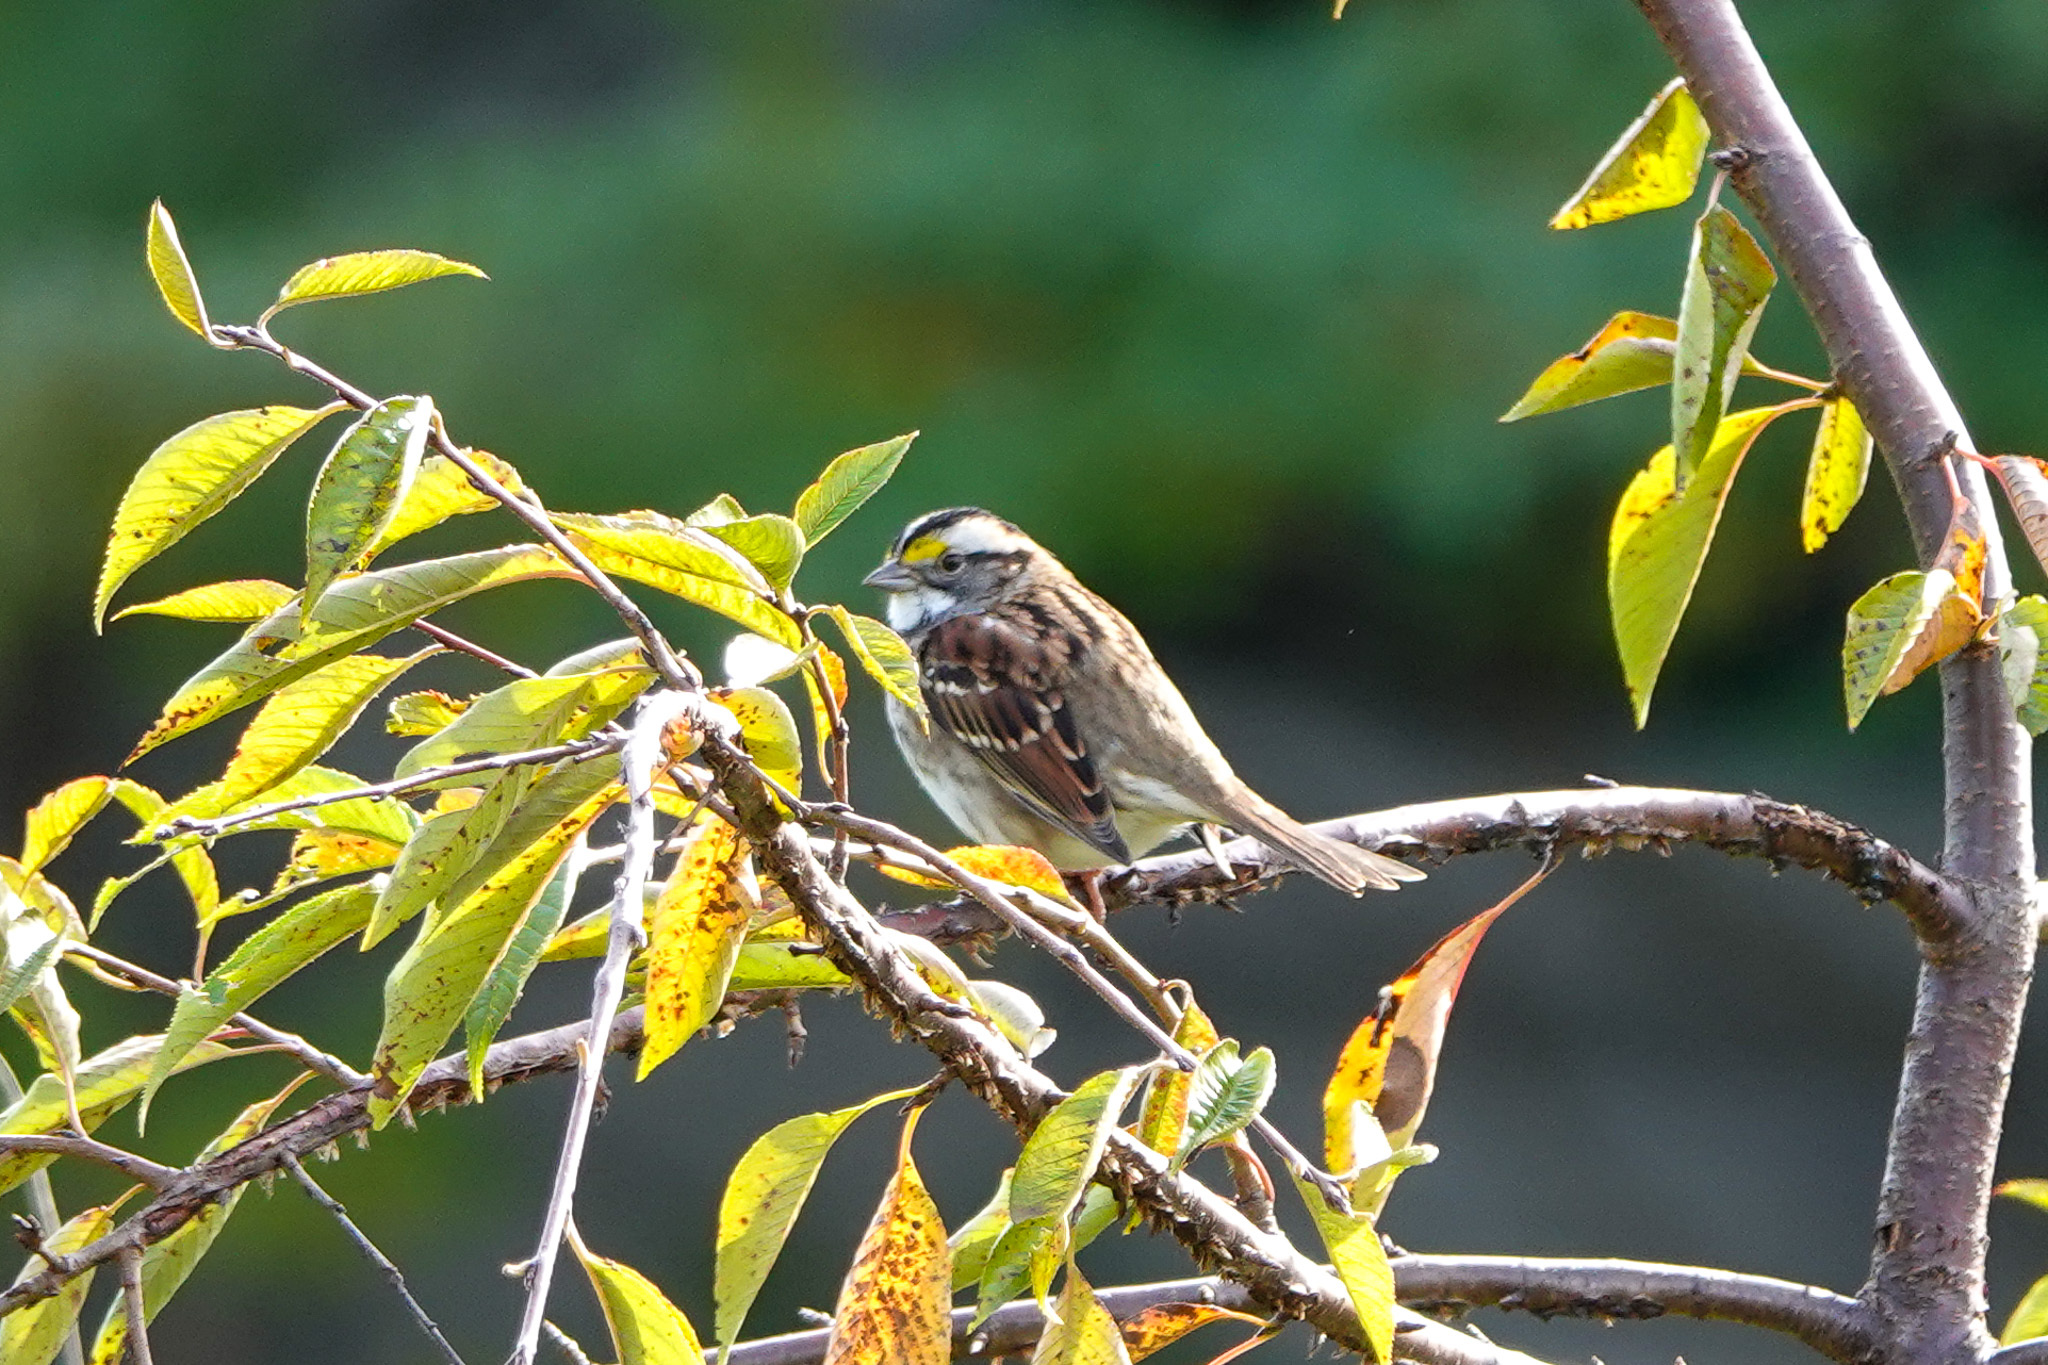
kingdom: Animalia
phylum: Chordata
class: Aves
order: Passeriformes
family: Passerellidae
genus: Zonotrichia
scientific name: Zonotrichia albicollis
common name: White-throated sparrow
